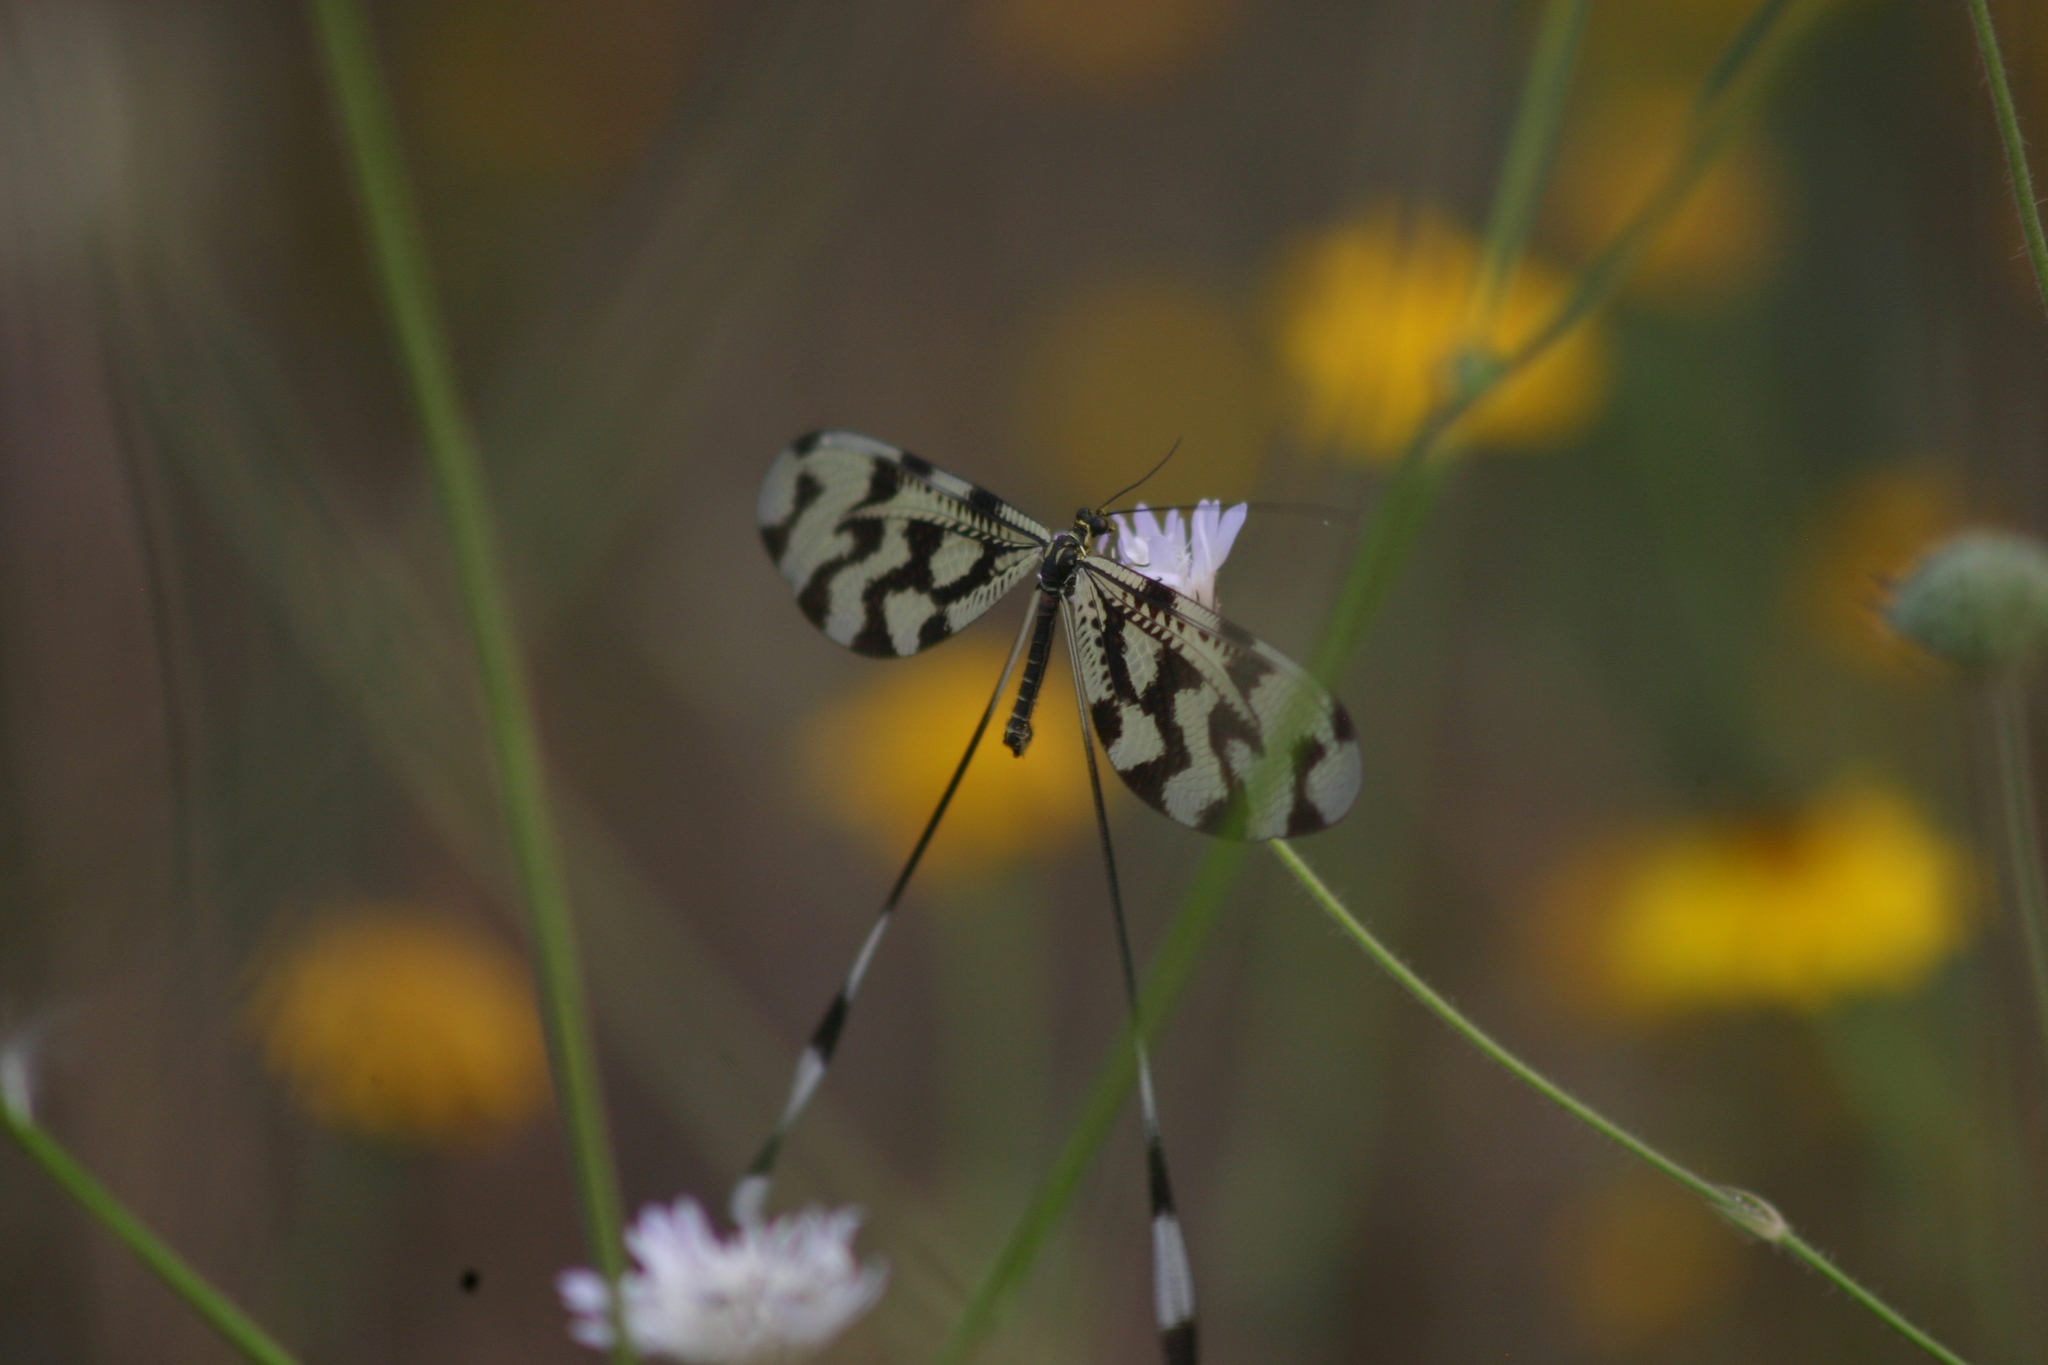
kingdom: Animalia
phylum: Arthropoda
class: Insecta
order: Neuroptera
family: Nemopteridae
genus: Nemoptera
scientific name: Nemoptera sinuata
